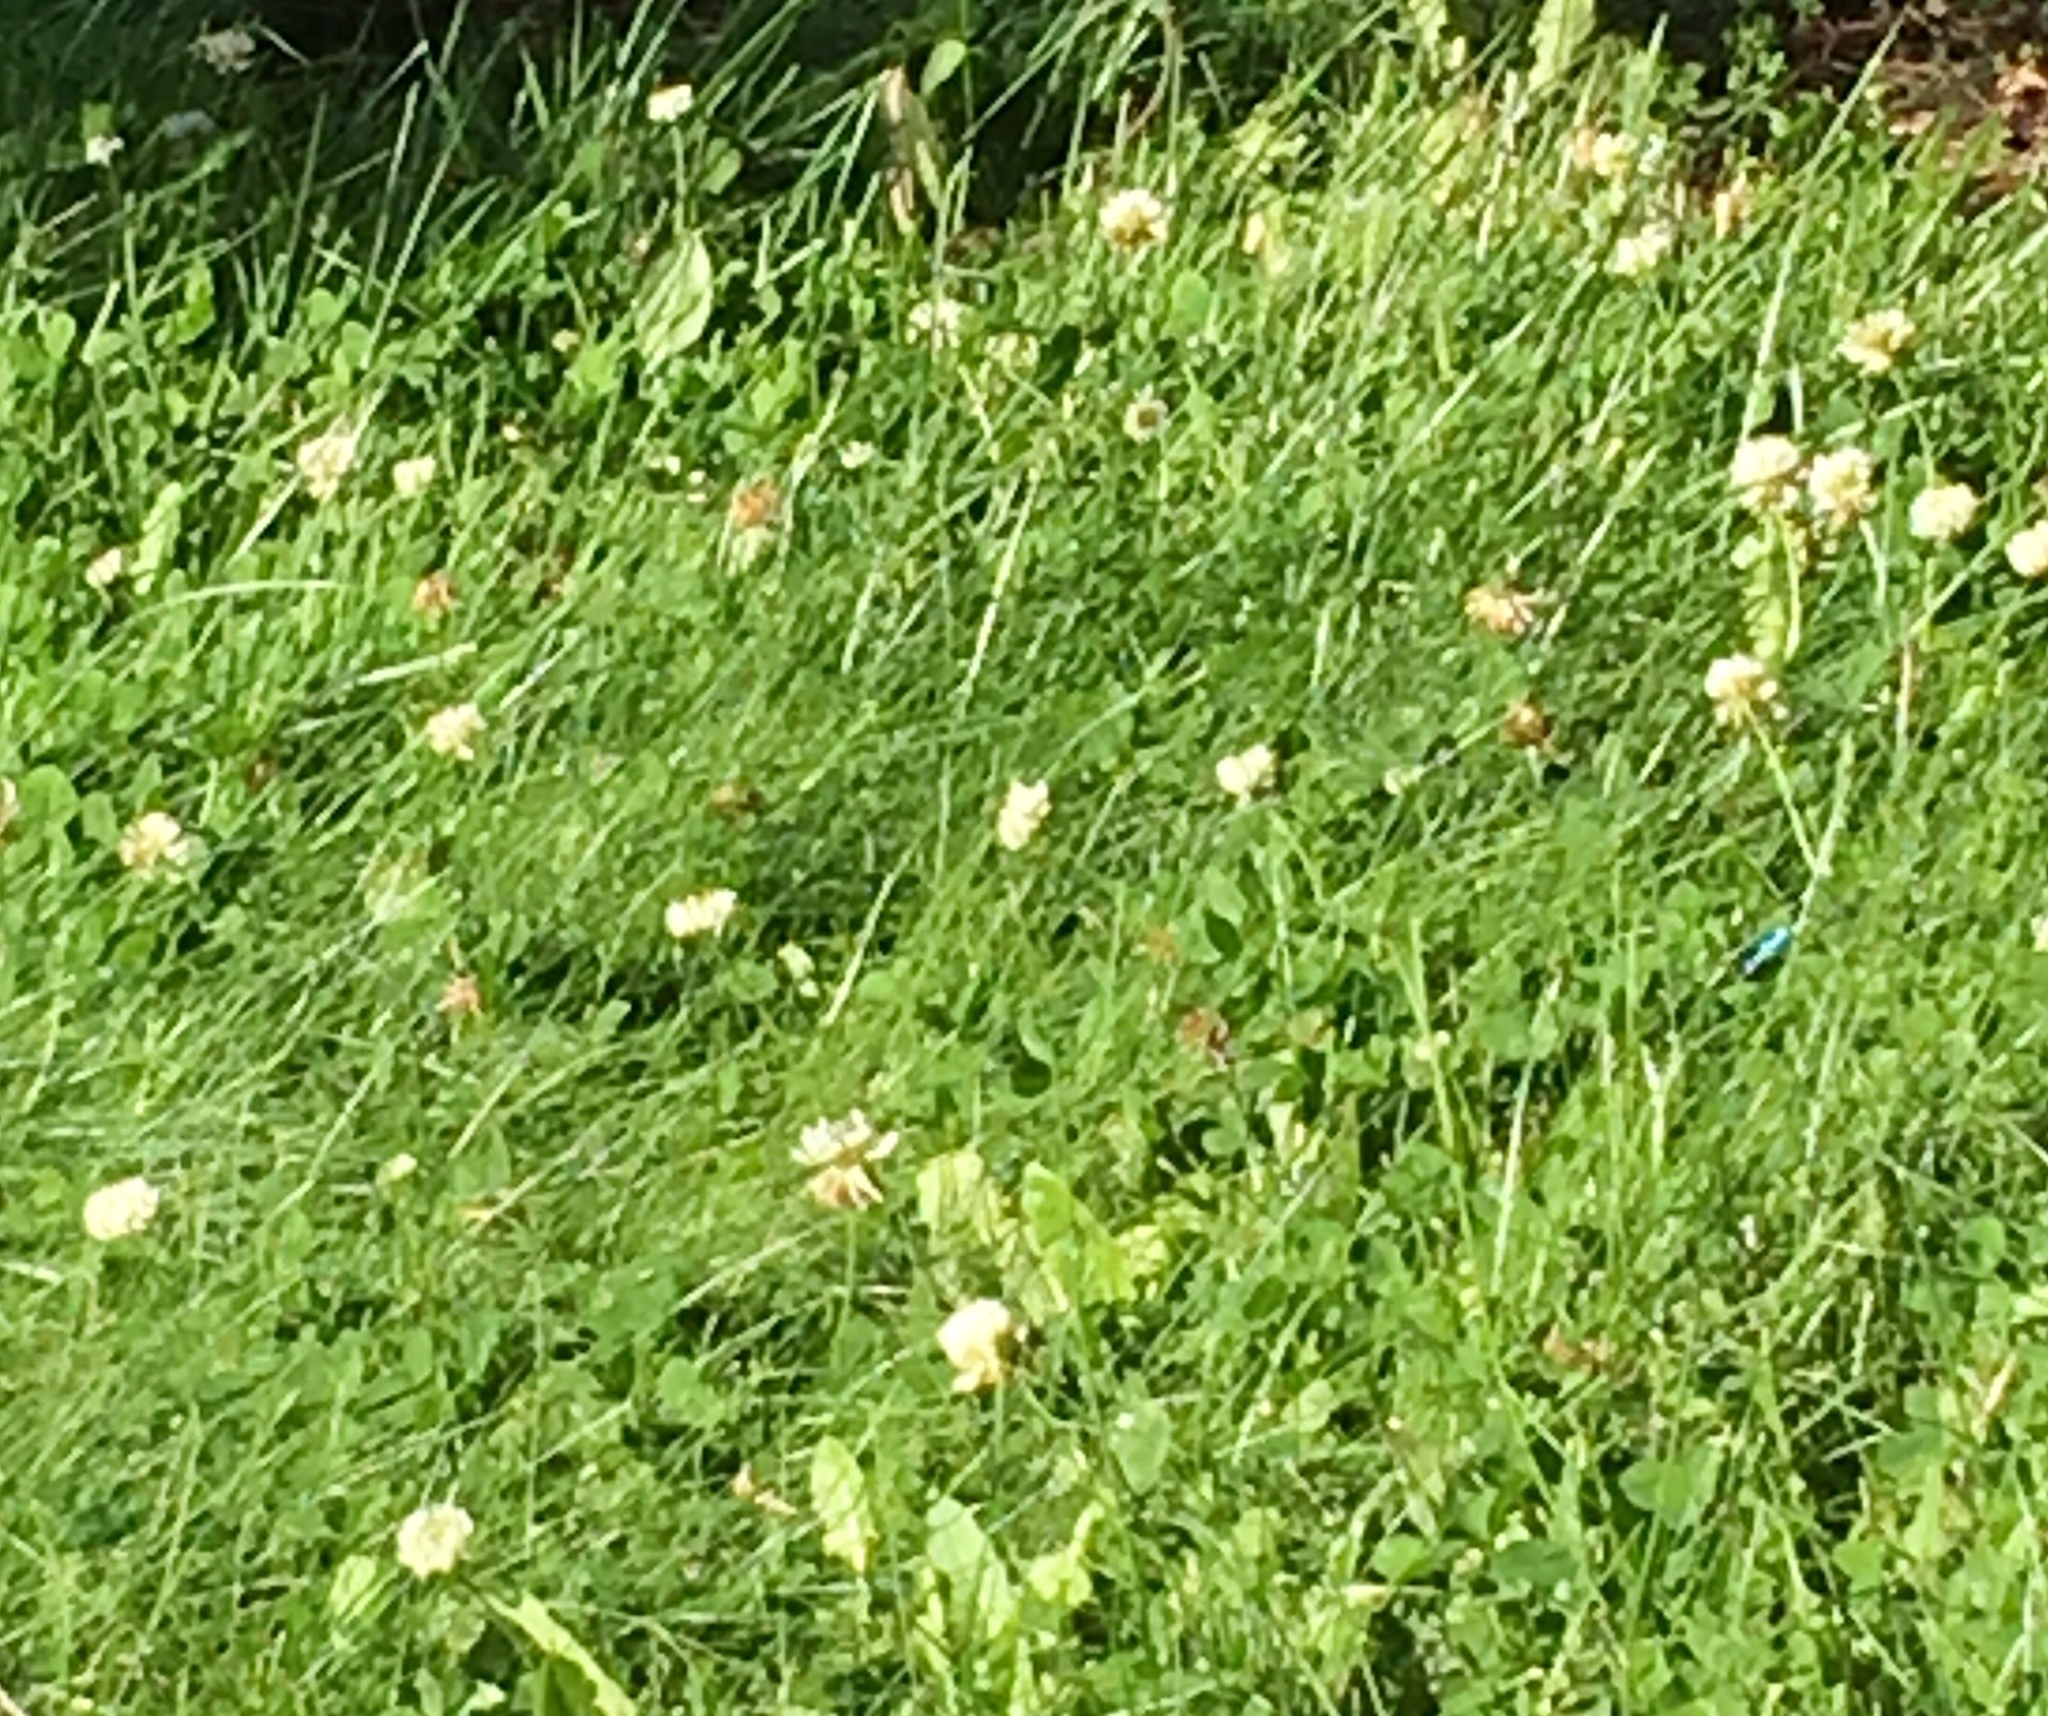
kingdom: Plantae
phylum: Tracheophyta
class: Magnoliopsida
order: Fabales
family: Fabaceae
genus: Trifolium
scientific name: Trifolium repens
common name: White clover
